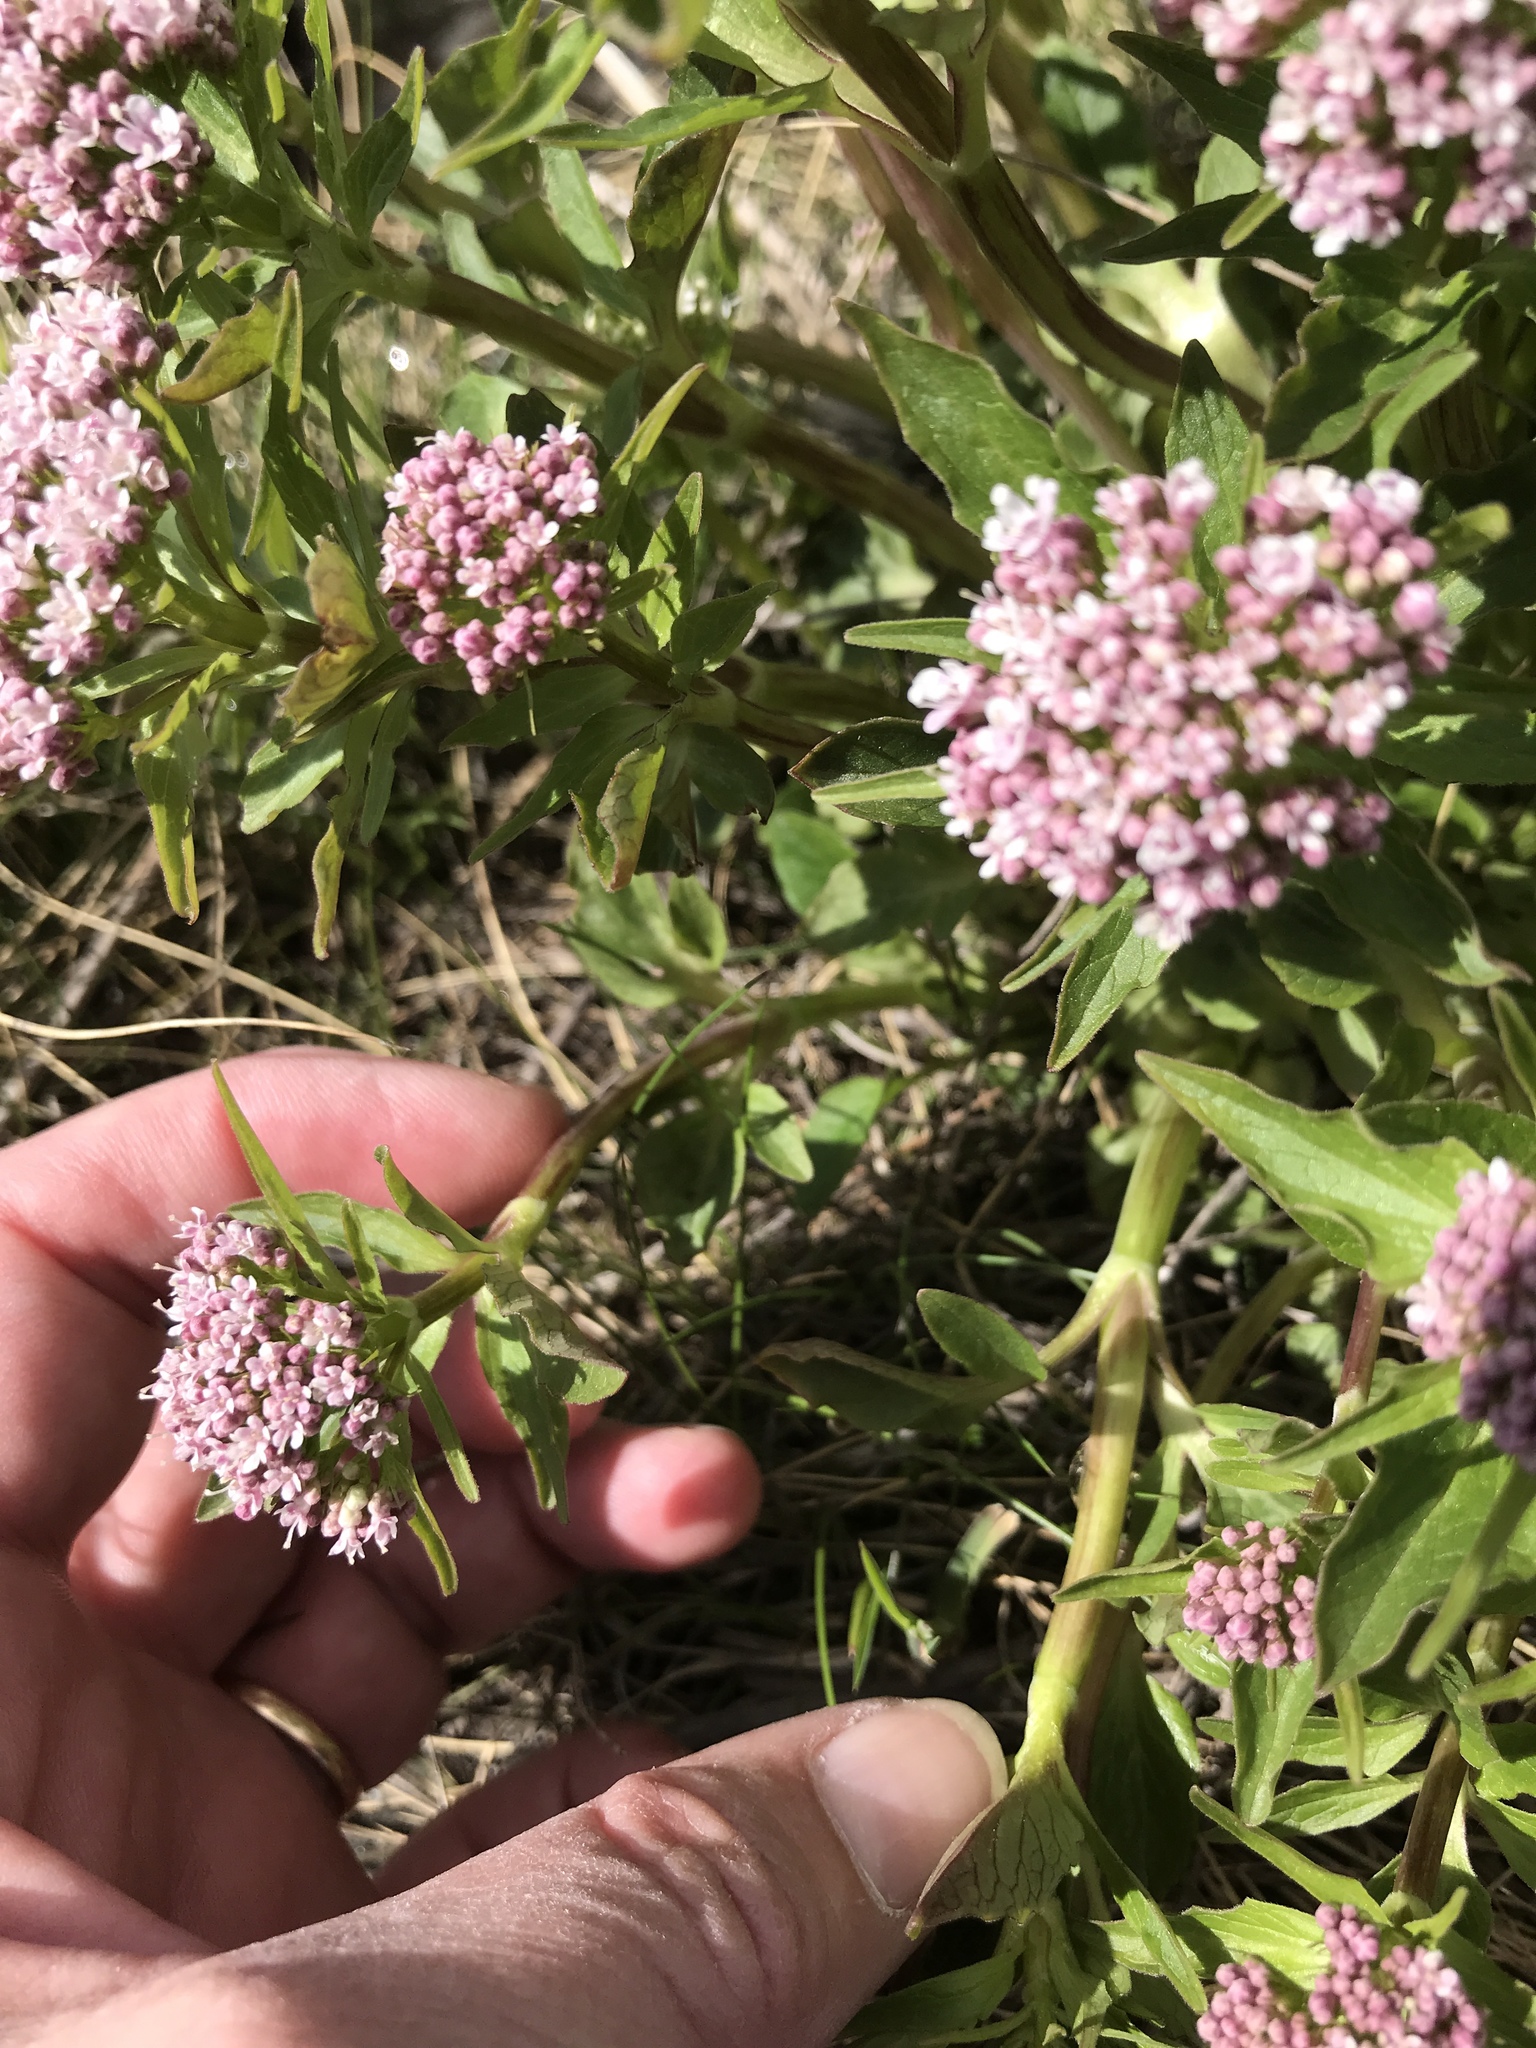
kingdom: Plantae
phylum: Tracheophyta
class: Magnoliopsida
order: Dipsacales
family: Caprifoliaceae
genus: Valeriana
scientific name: Valeriana tripteris
